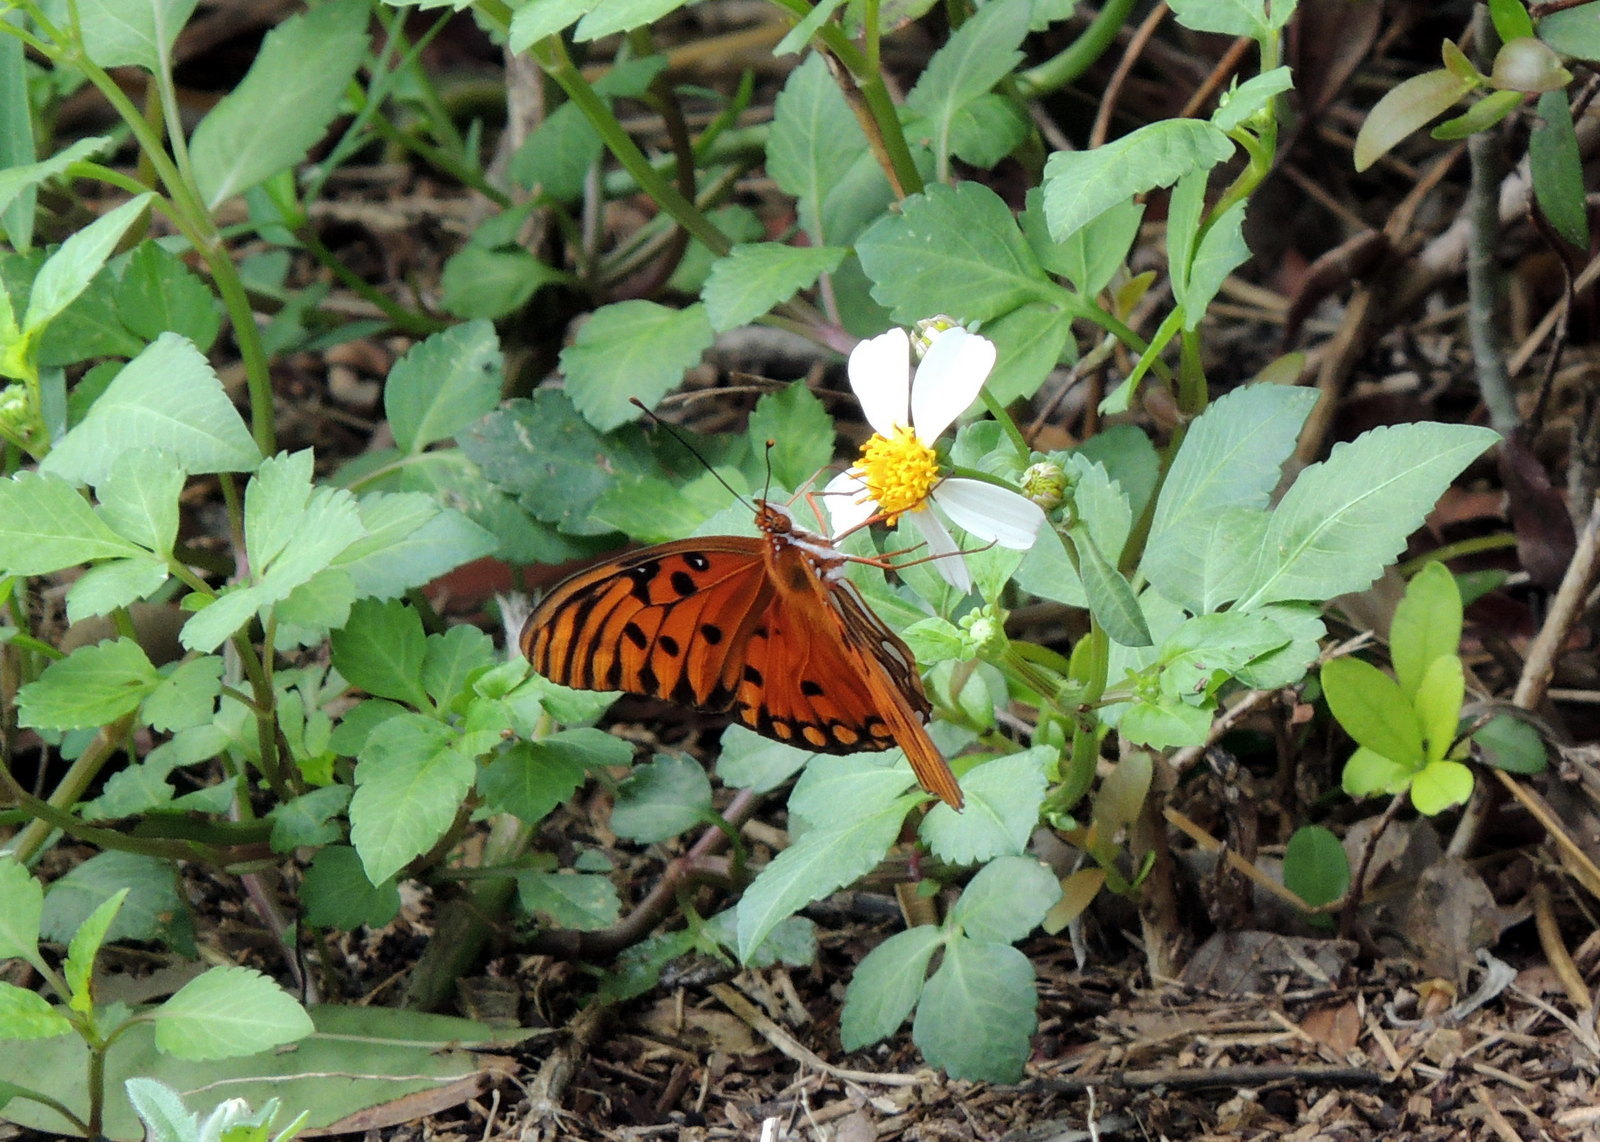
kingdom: Animalia
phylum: Arthropoda
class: Insecta
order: Lepidoptera
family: Nymphalidae
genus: Dione
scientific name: Dione vanillae
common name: Gulf fritillary
